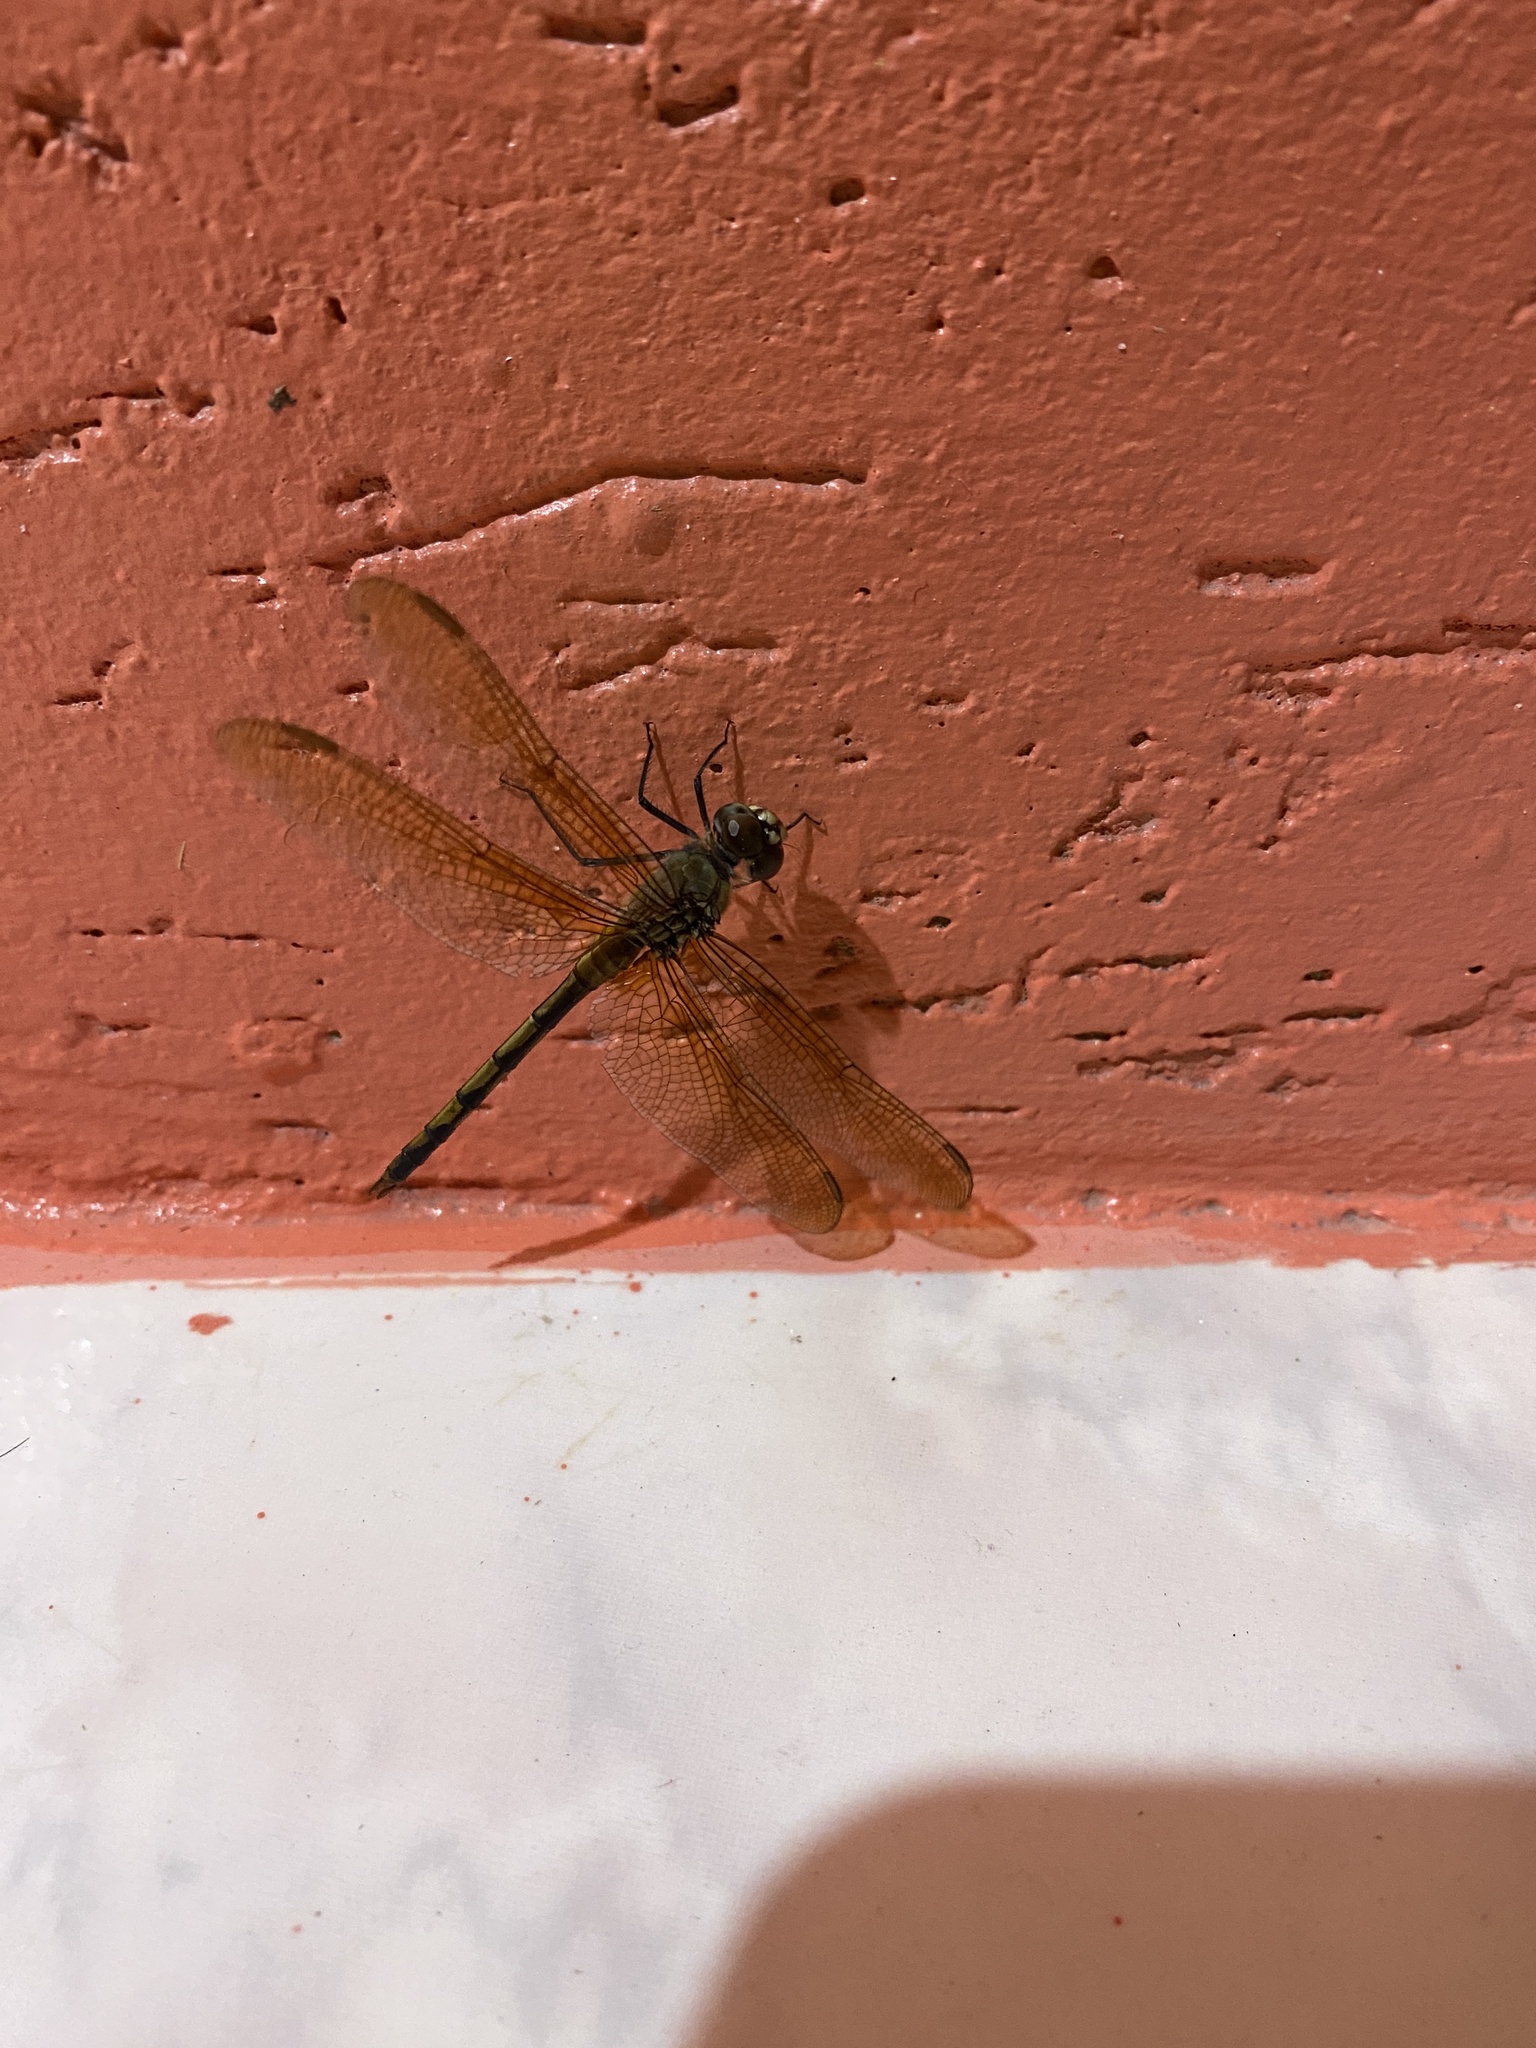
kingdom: Animalia
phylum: Arthropoda
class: Insecta
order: Odonata
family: Libellulidae
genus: Brachymesia
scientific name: Brachymesia herbida
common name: Tawny pennant
